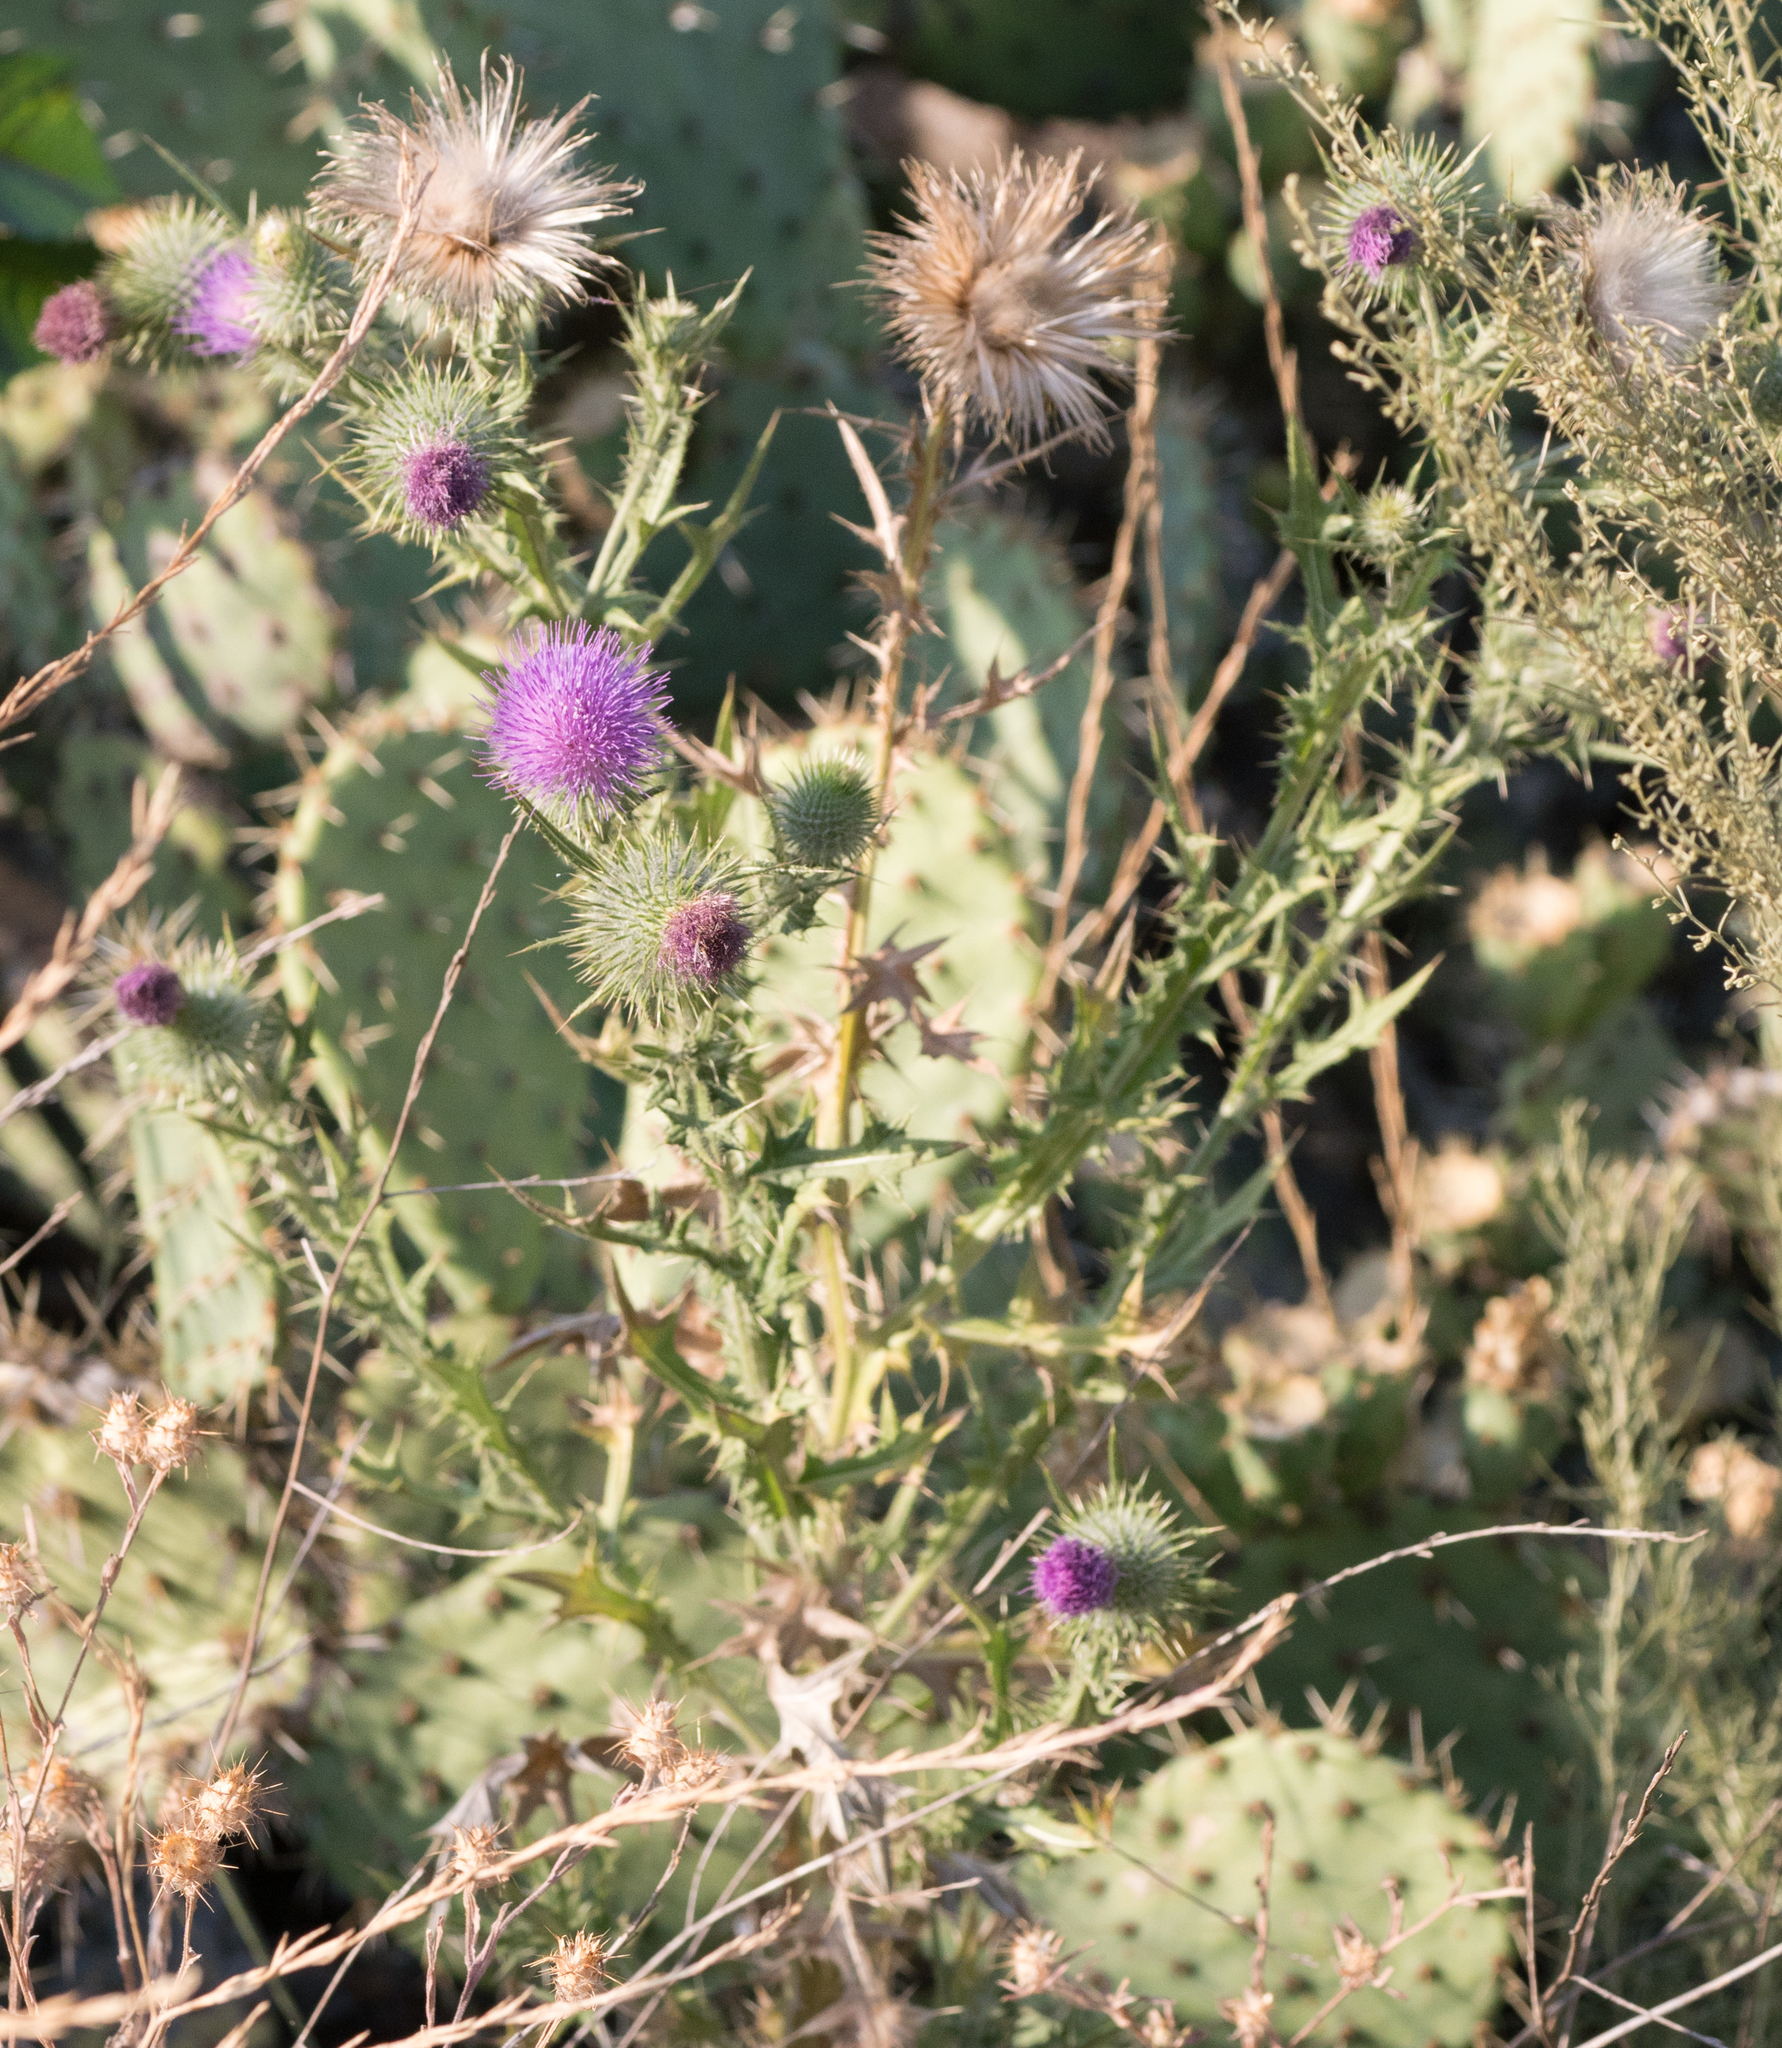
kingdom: Plantae
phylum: Tracheophyta
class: Magnoliopsida
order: Asterales
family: Asteraceae
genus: Cirsium
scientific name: Cirsium vulgare
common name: Bull thistle
